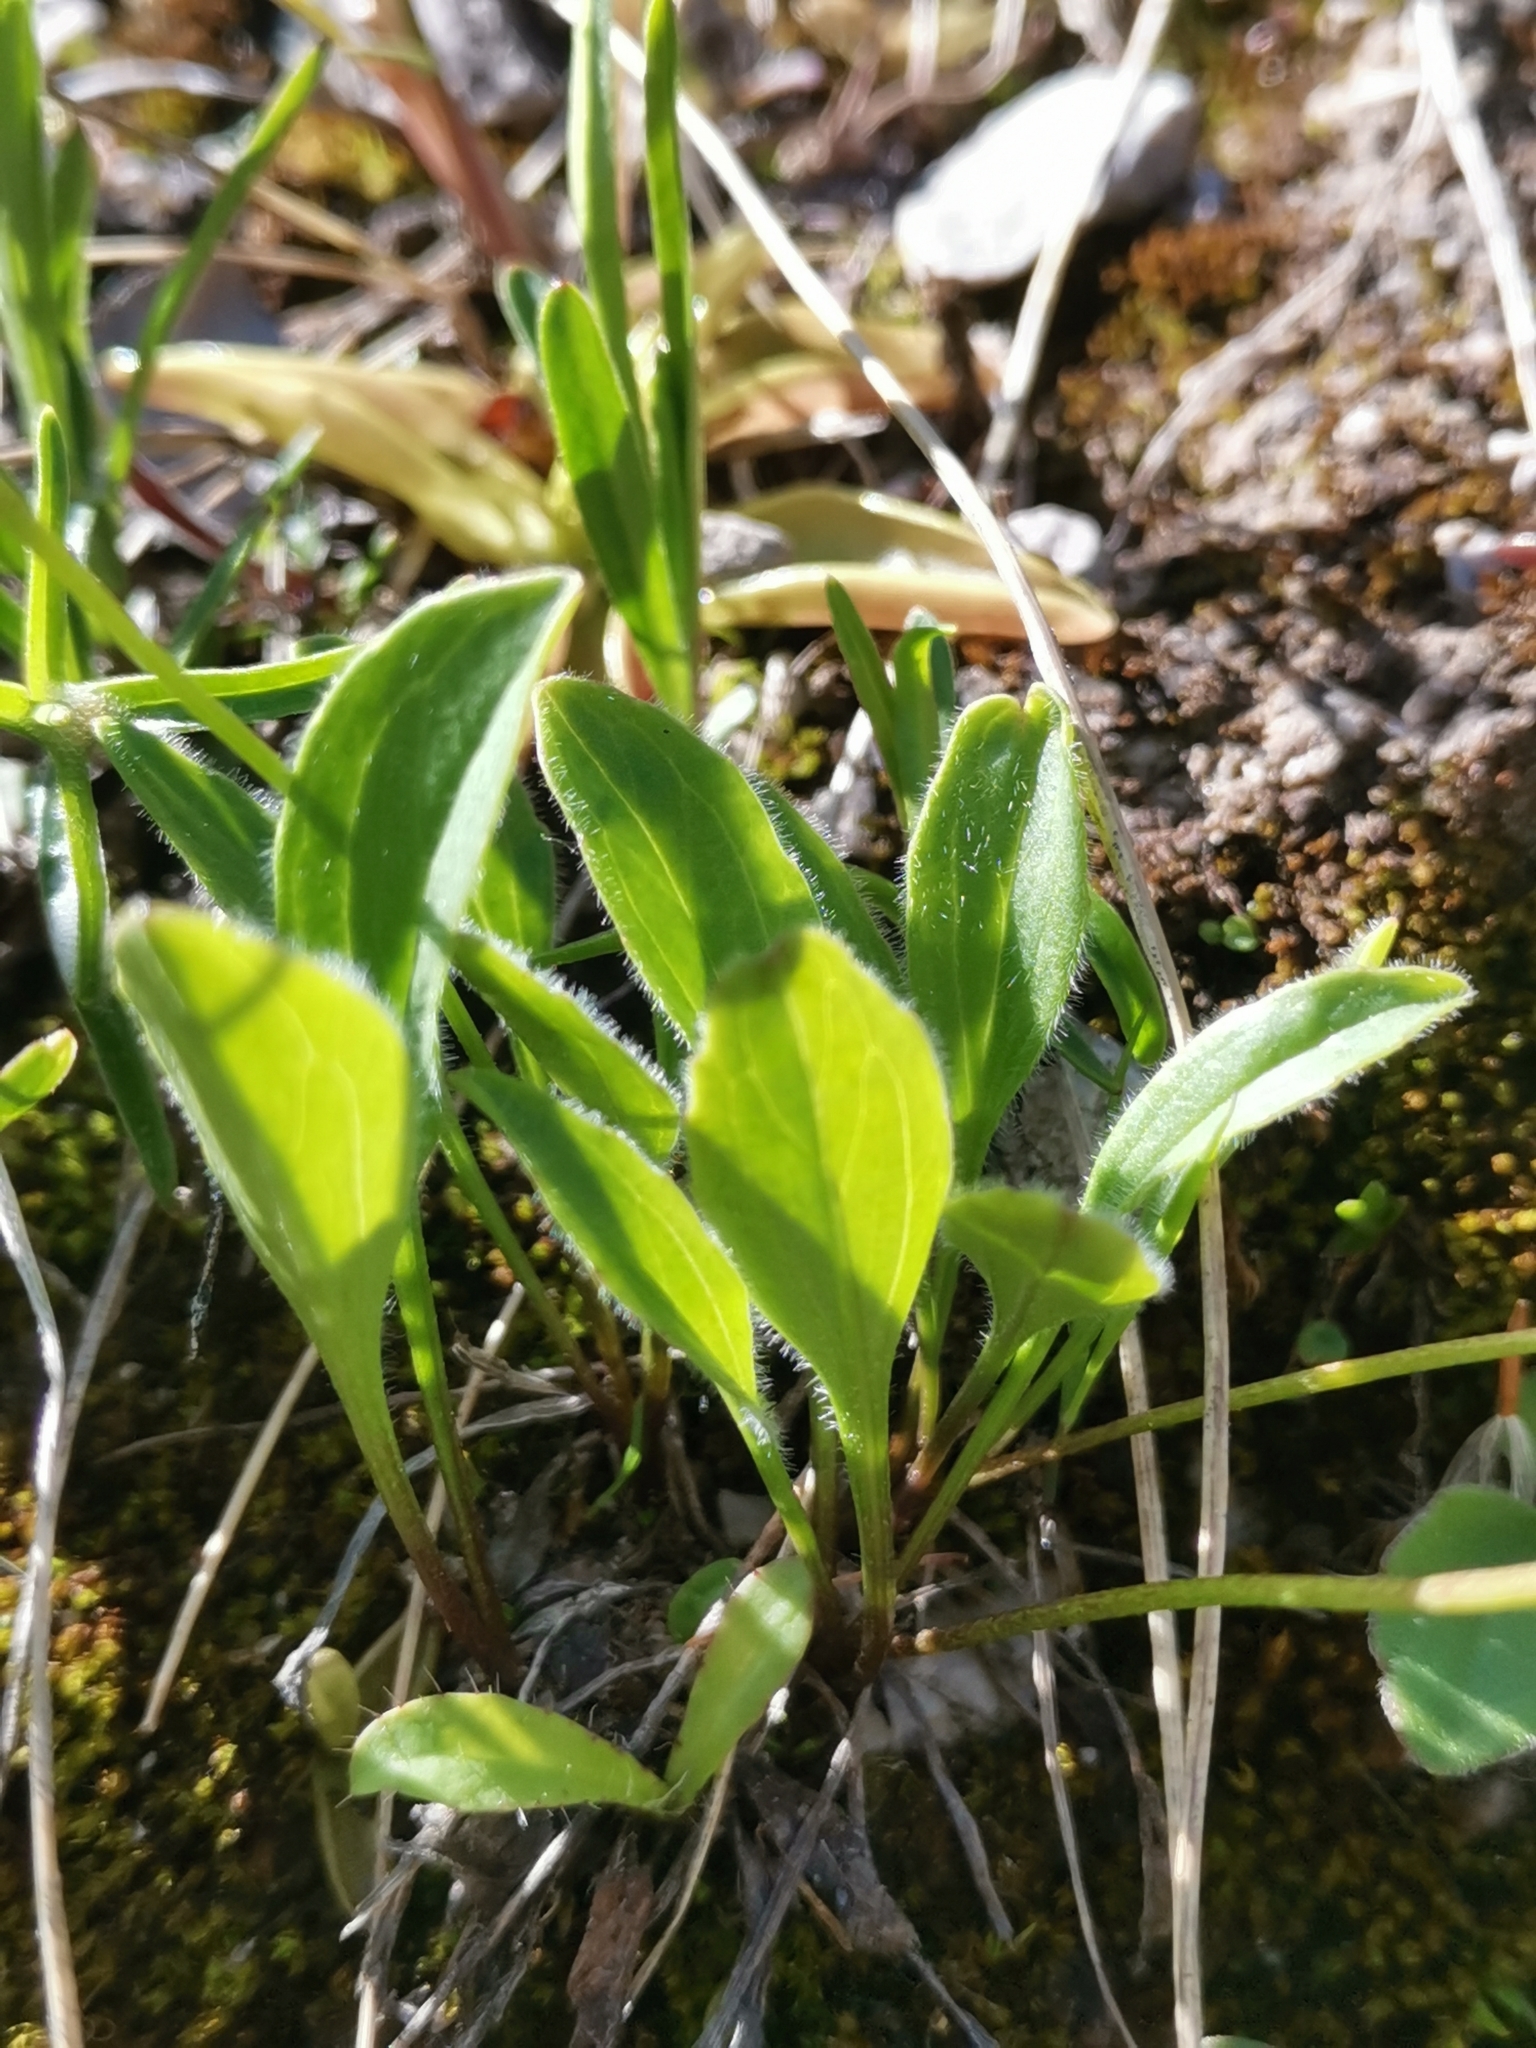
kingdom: Plantae
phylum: Tracheophyta
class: Magnoliopsida
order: Dipsacales
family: Caprifoliaceae
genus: Valeriana
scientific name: Valeriana saxatilis
